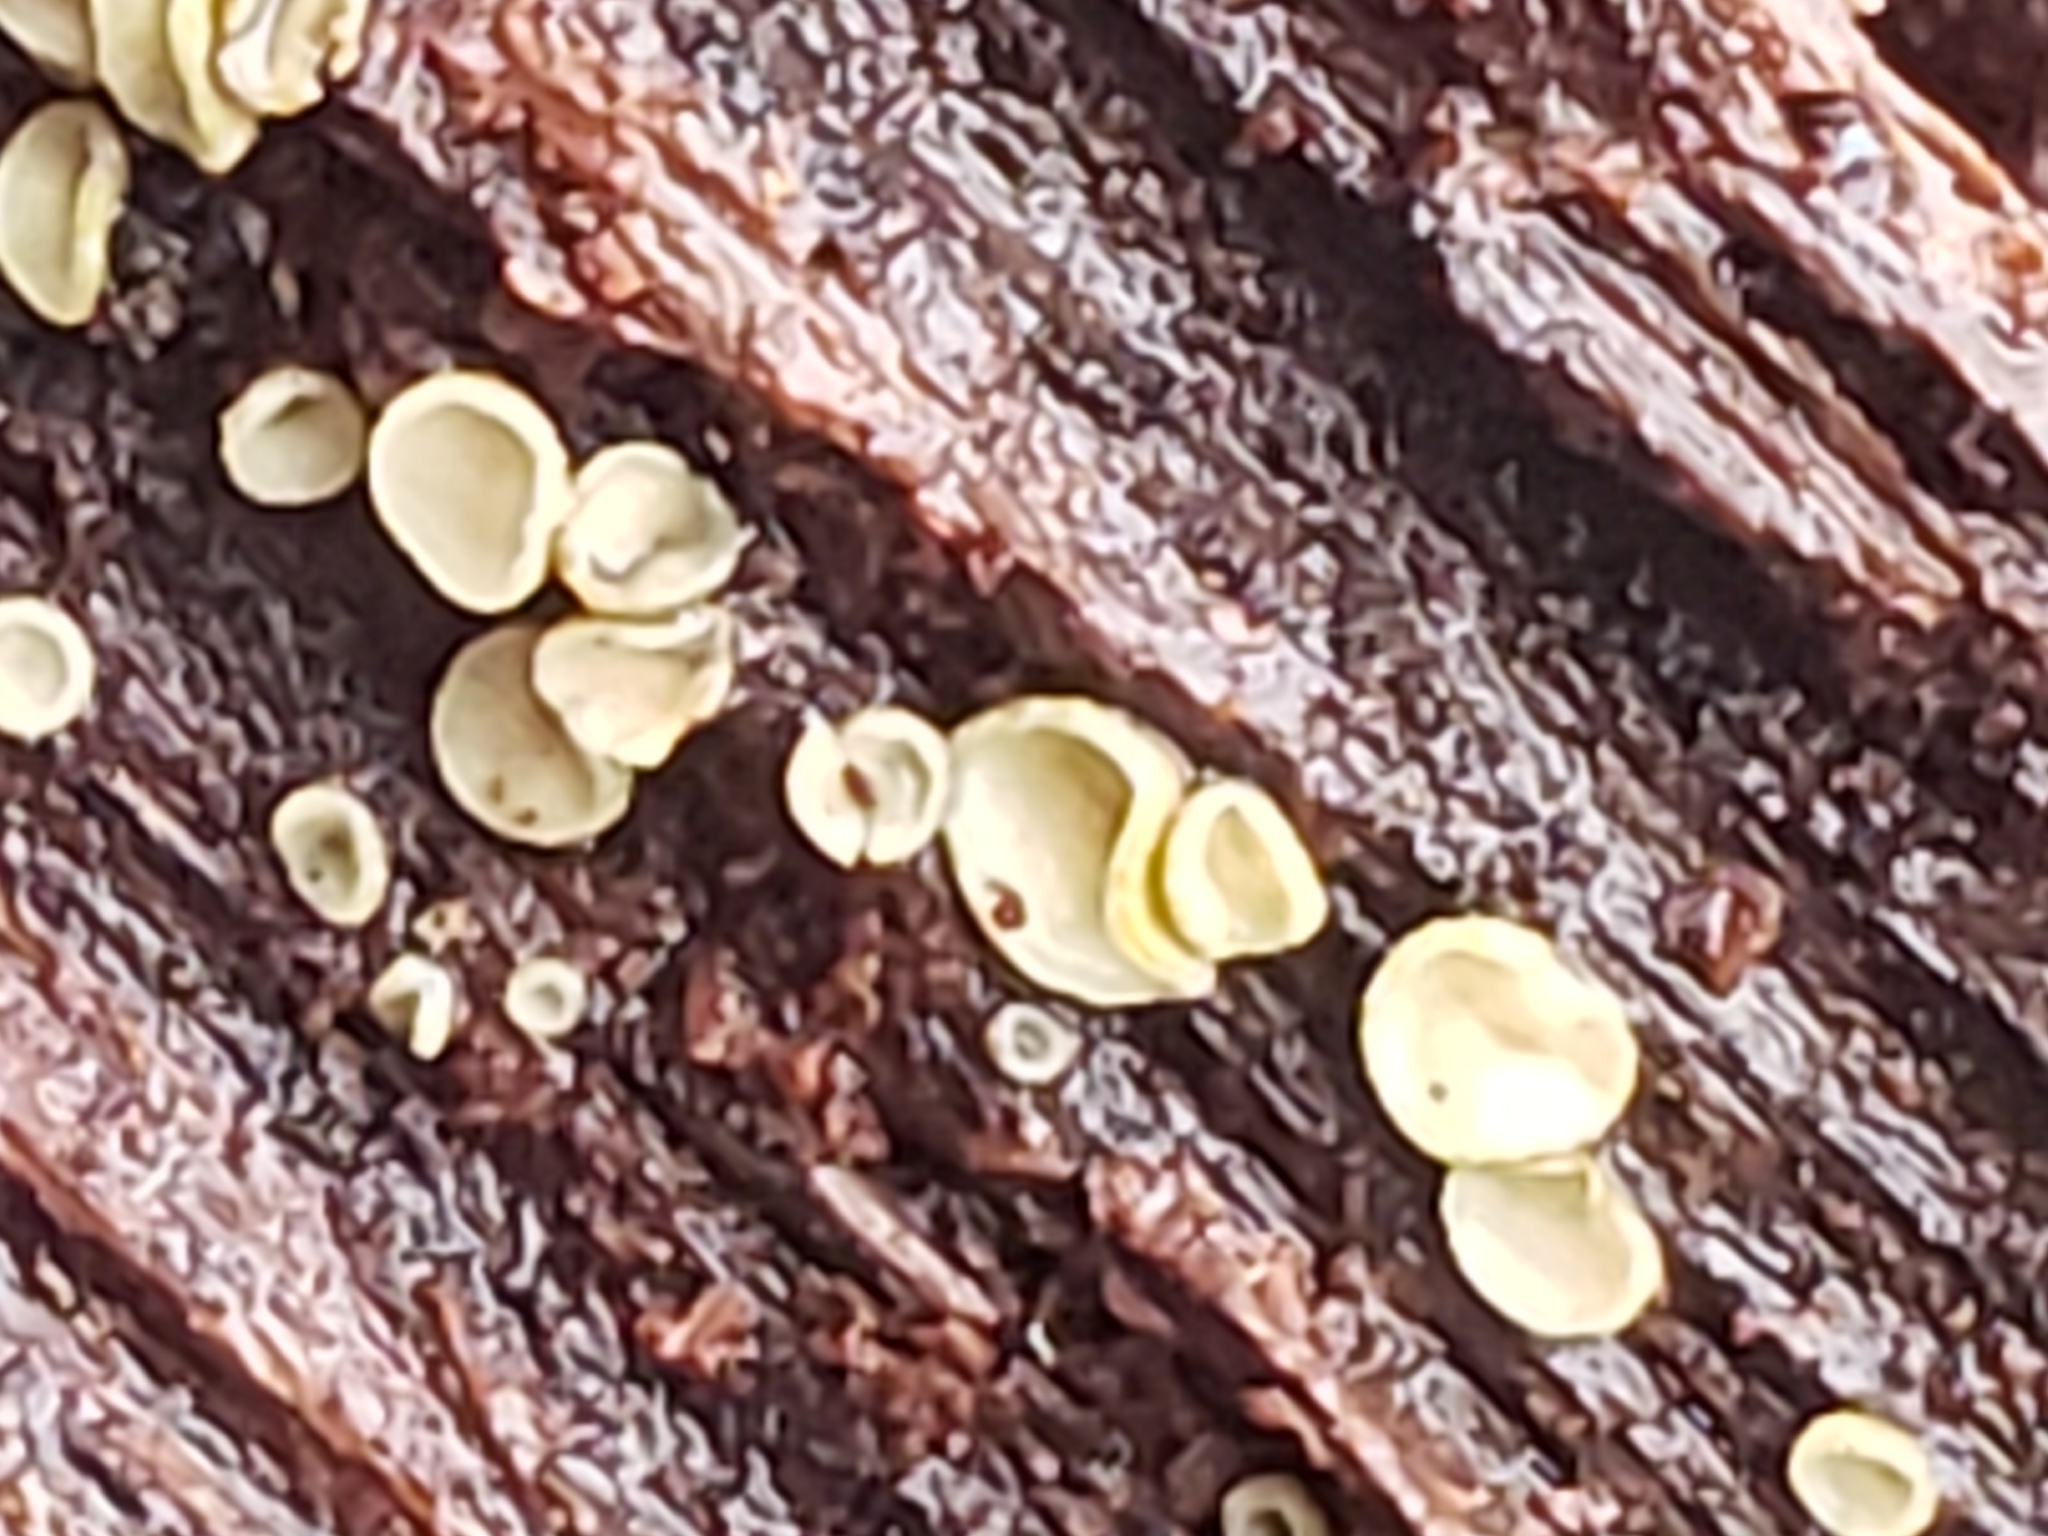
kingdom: Fungi
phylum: Ascomycota
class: Leotiomycetes
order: Helotiales
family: Chlorospleniaceae
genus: Chlorosplenium
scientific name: Chlorosplenium chlora
